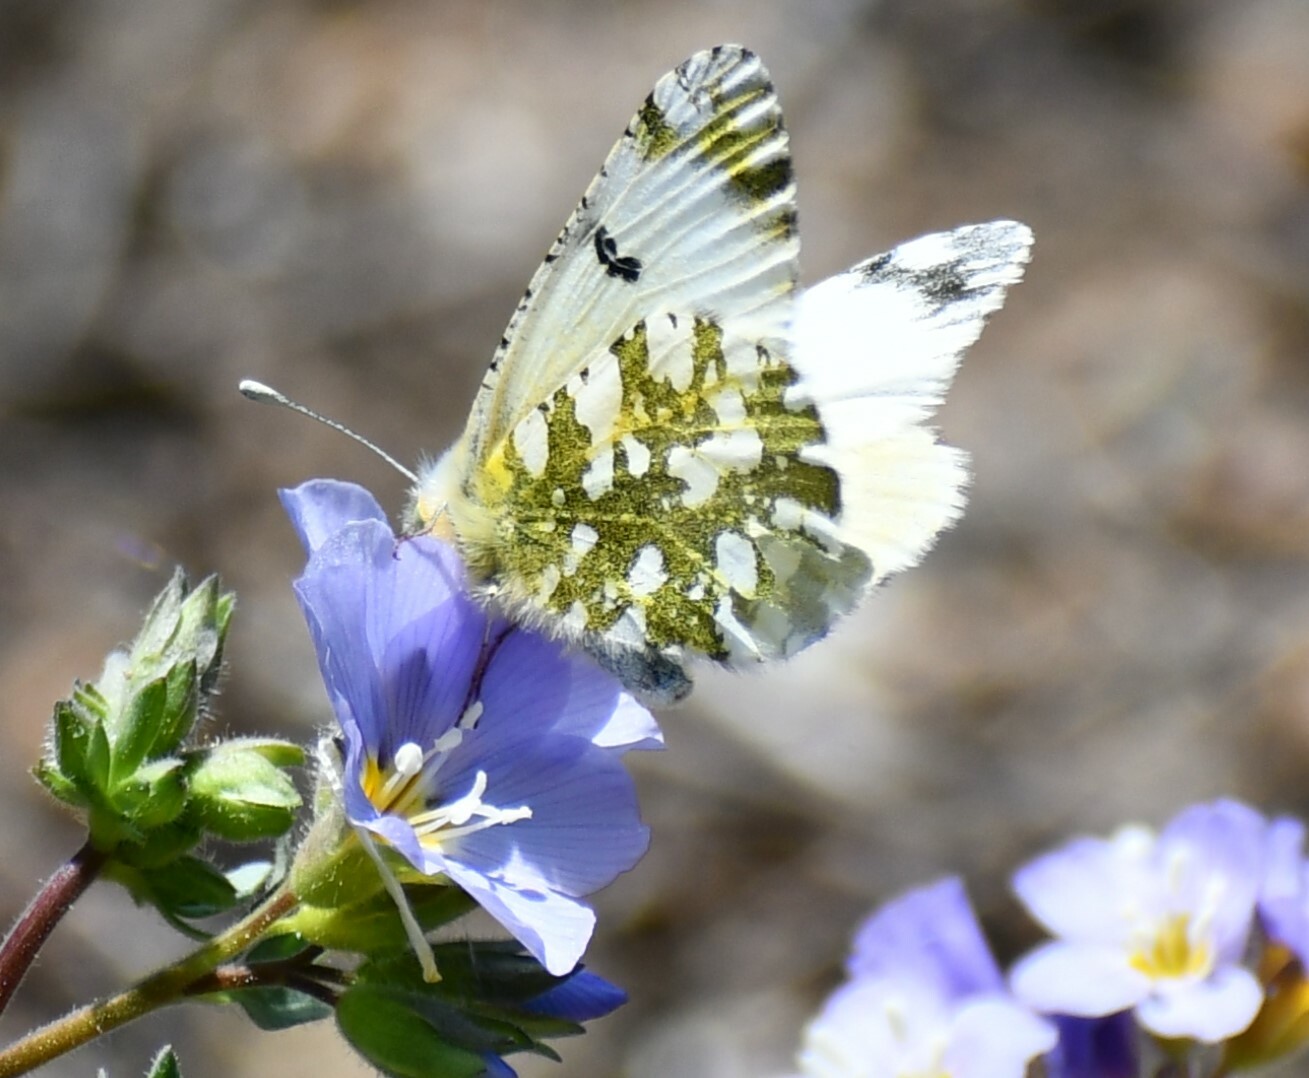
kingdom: Animalia
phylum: Arthropoda
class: Insecta
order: Lepidoptera
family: Pieridae
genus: Euchloe
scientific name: Euchloe ausonides
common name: Creamy marblewing
